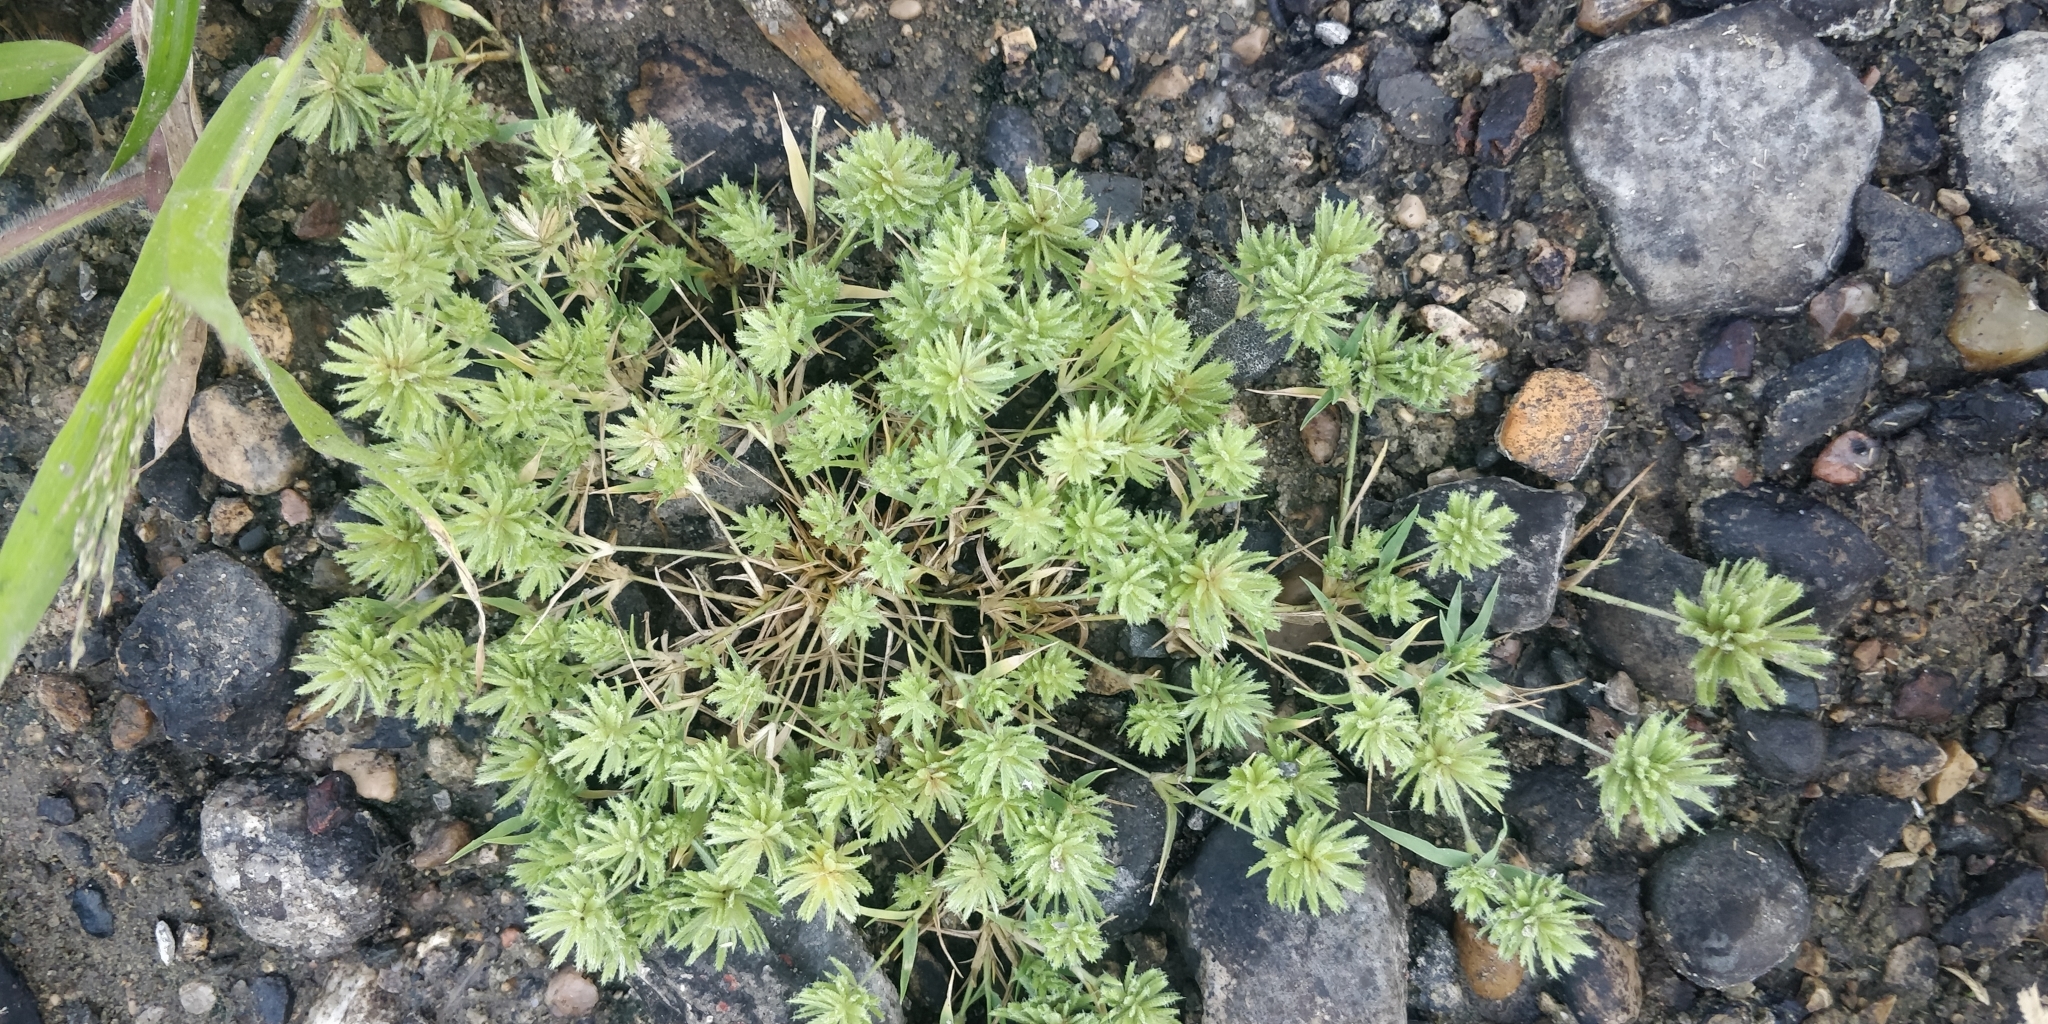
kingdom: Plantae
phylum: Tracheophyta
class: Liliopsida
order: Poales
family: Poaceae
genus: Eragrostis
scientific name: Eragrostis reptans
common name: Creeping love grass
